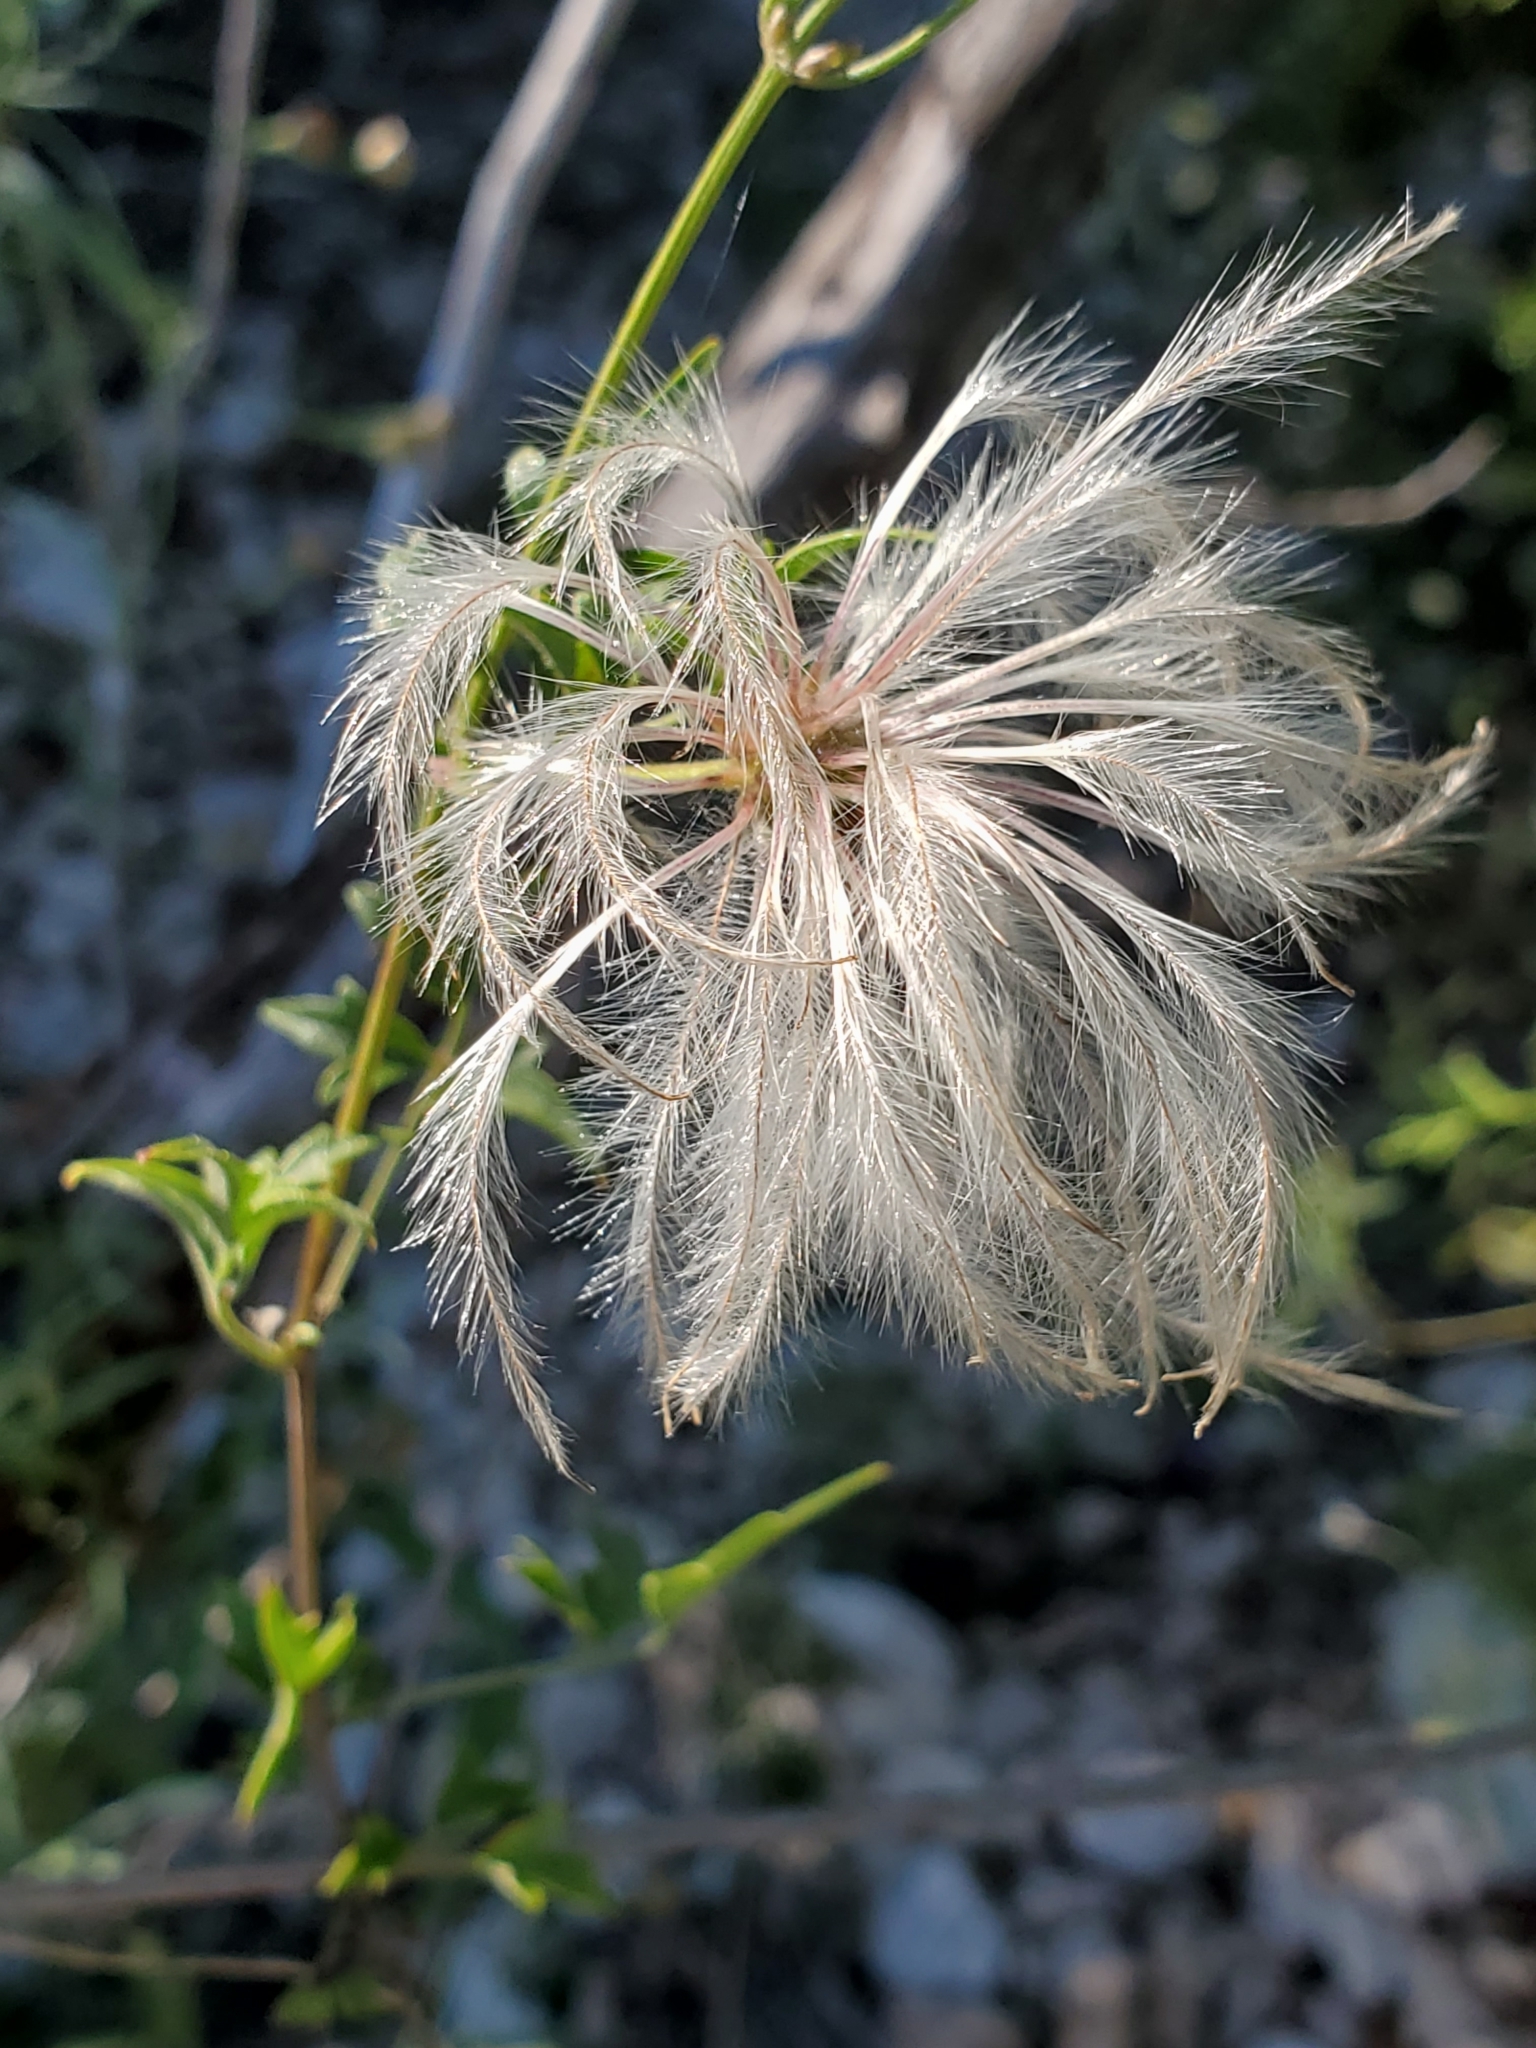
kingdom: Plantae
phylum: Tracheophyta
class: Magnoliopsida
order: Ranunculales
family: Ranunculaceae
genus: Clematis
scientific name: Clematis drummondii
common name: Texas virgin's bower
